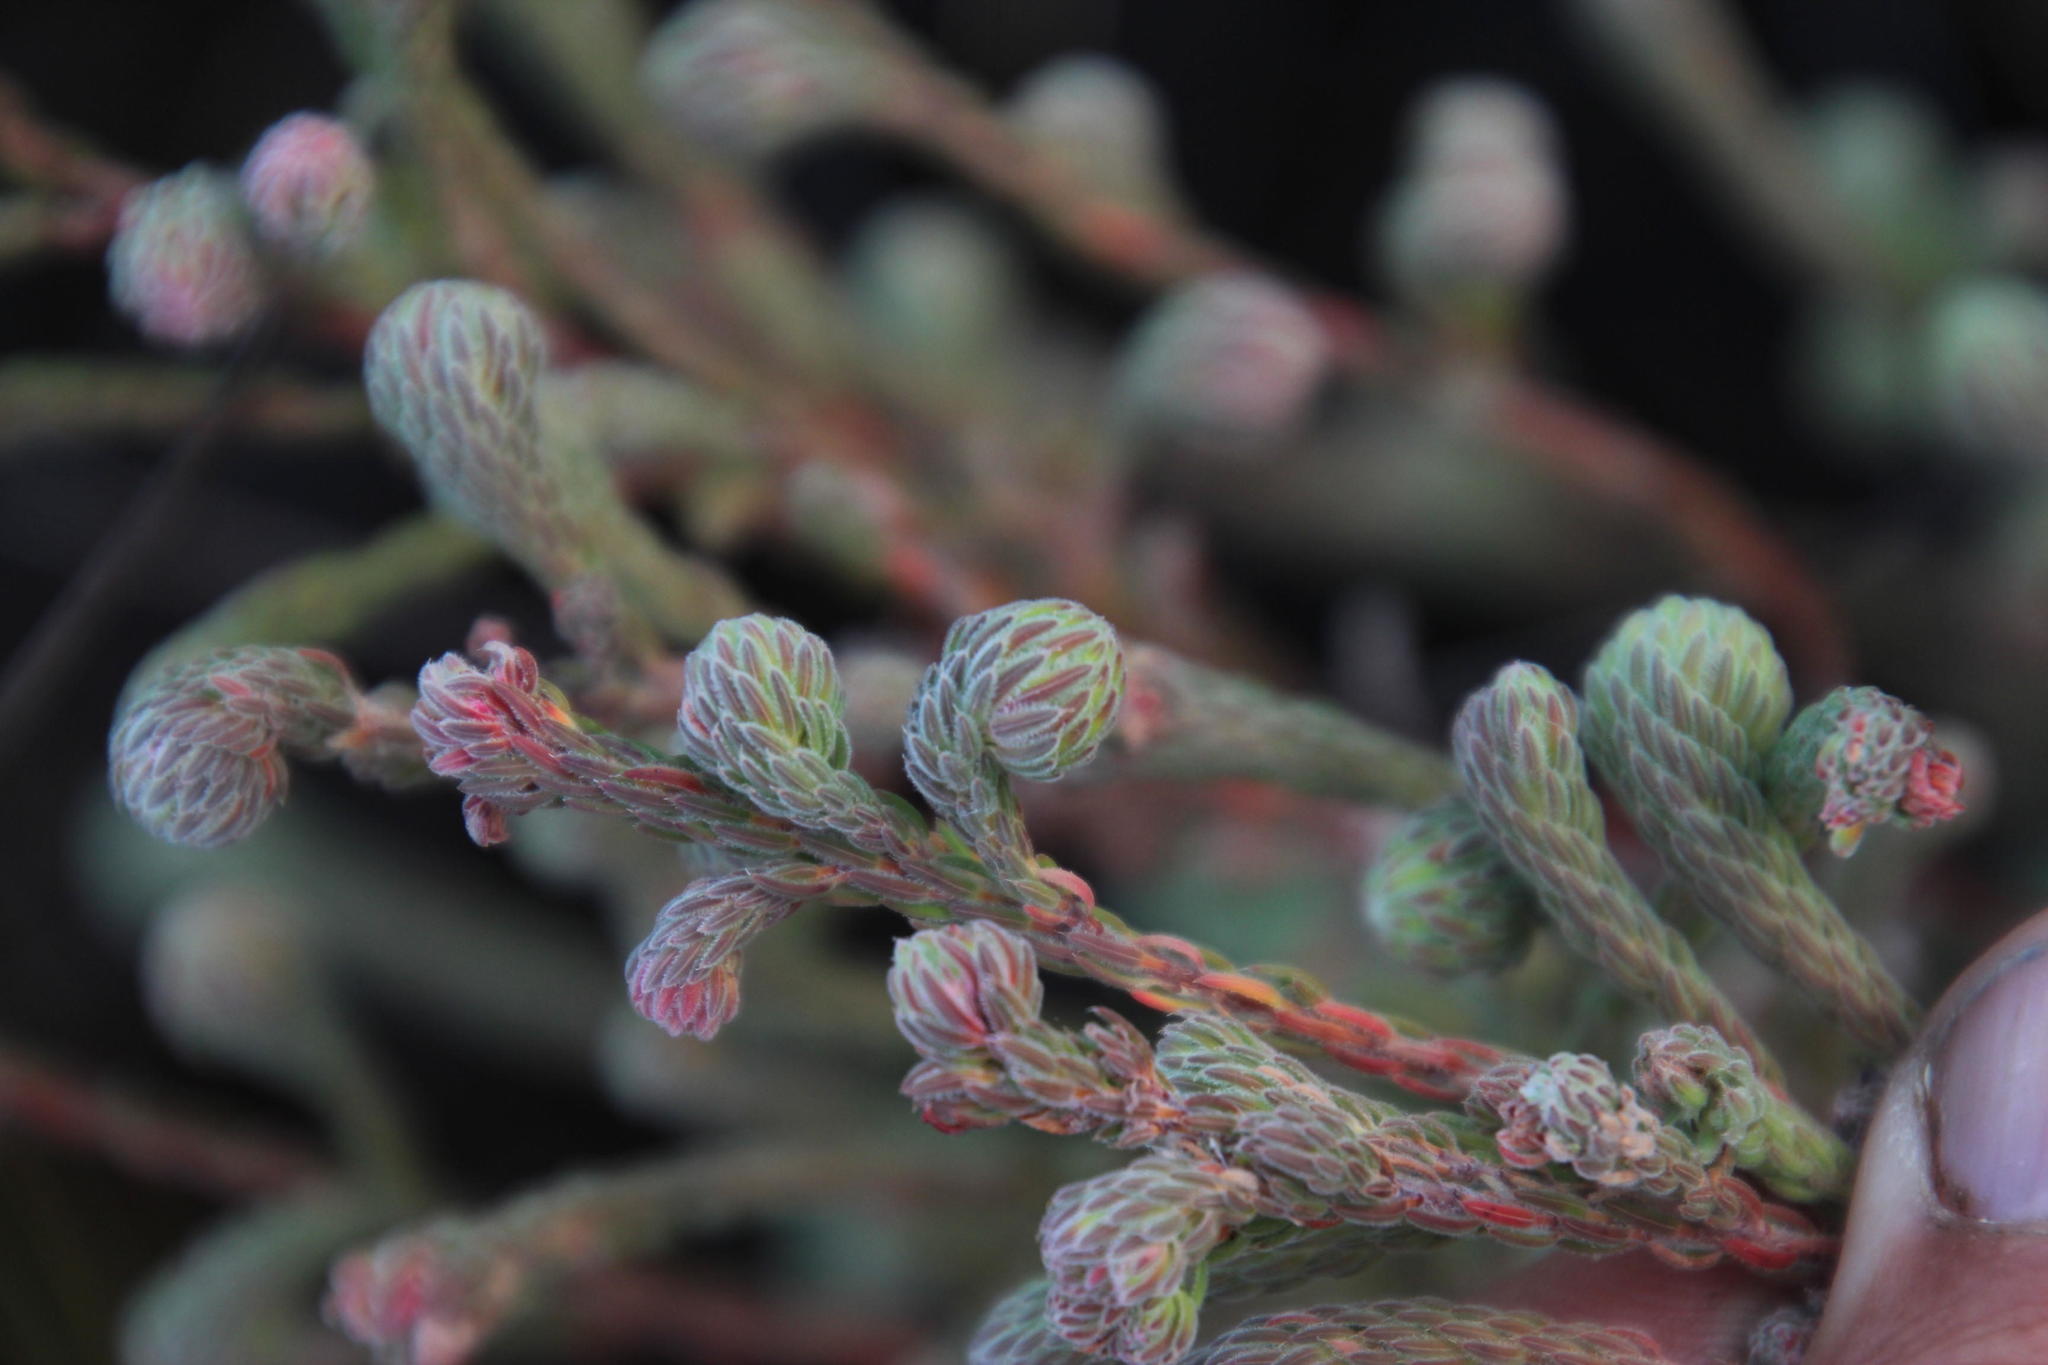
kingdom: Plantae
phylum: Tracheophyta
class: Magnoliopsida
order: Ericales
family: Ericaceae
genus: Erica
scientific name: Erica maderi
